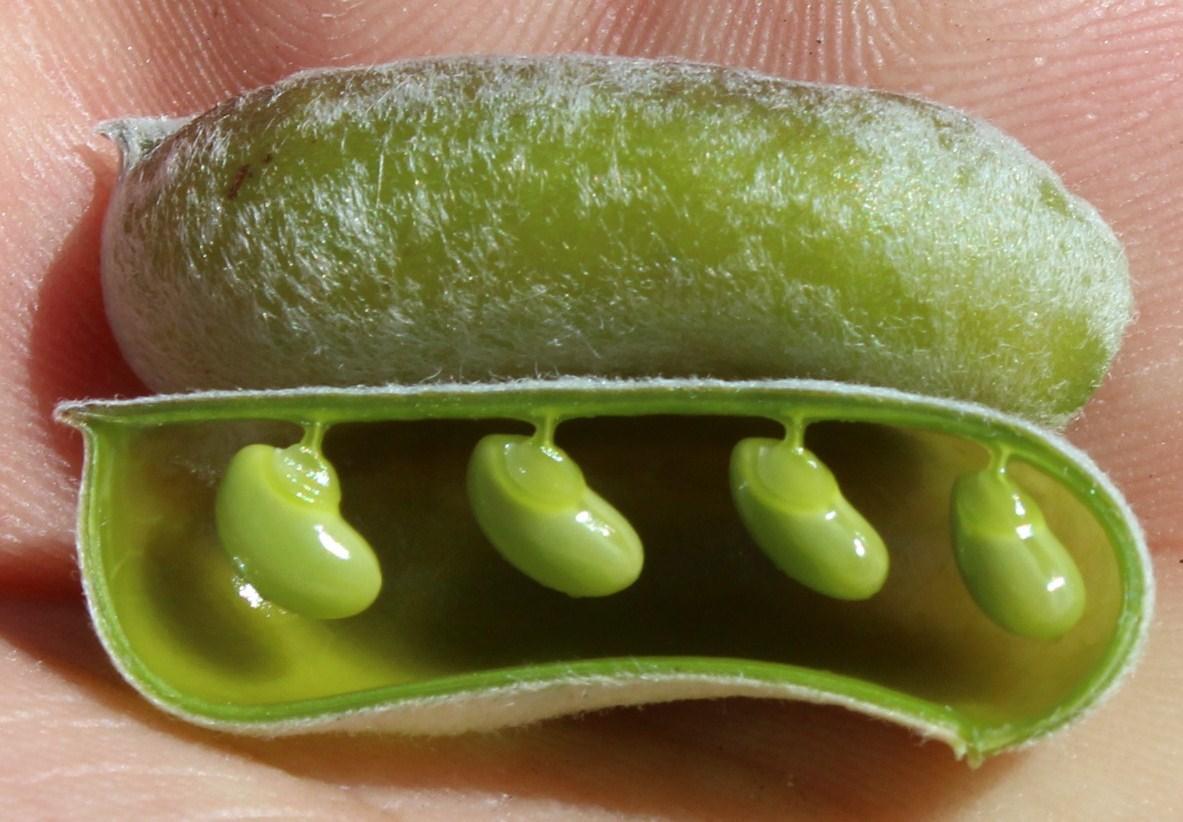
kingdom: Plantae
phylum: Tracheophyta
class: Magnoliopsida
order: Fabales
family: Fabaceae
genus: Podalyria
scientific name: Podalyria sericea
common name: Silver podalyria
